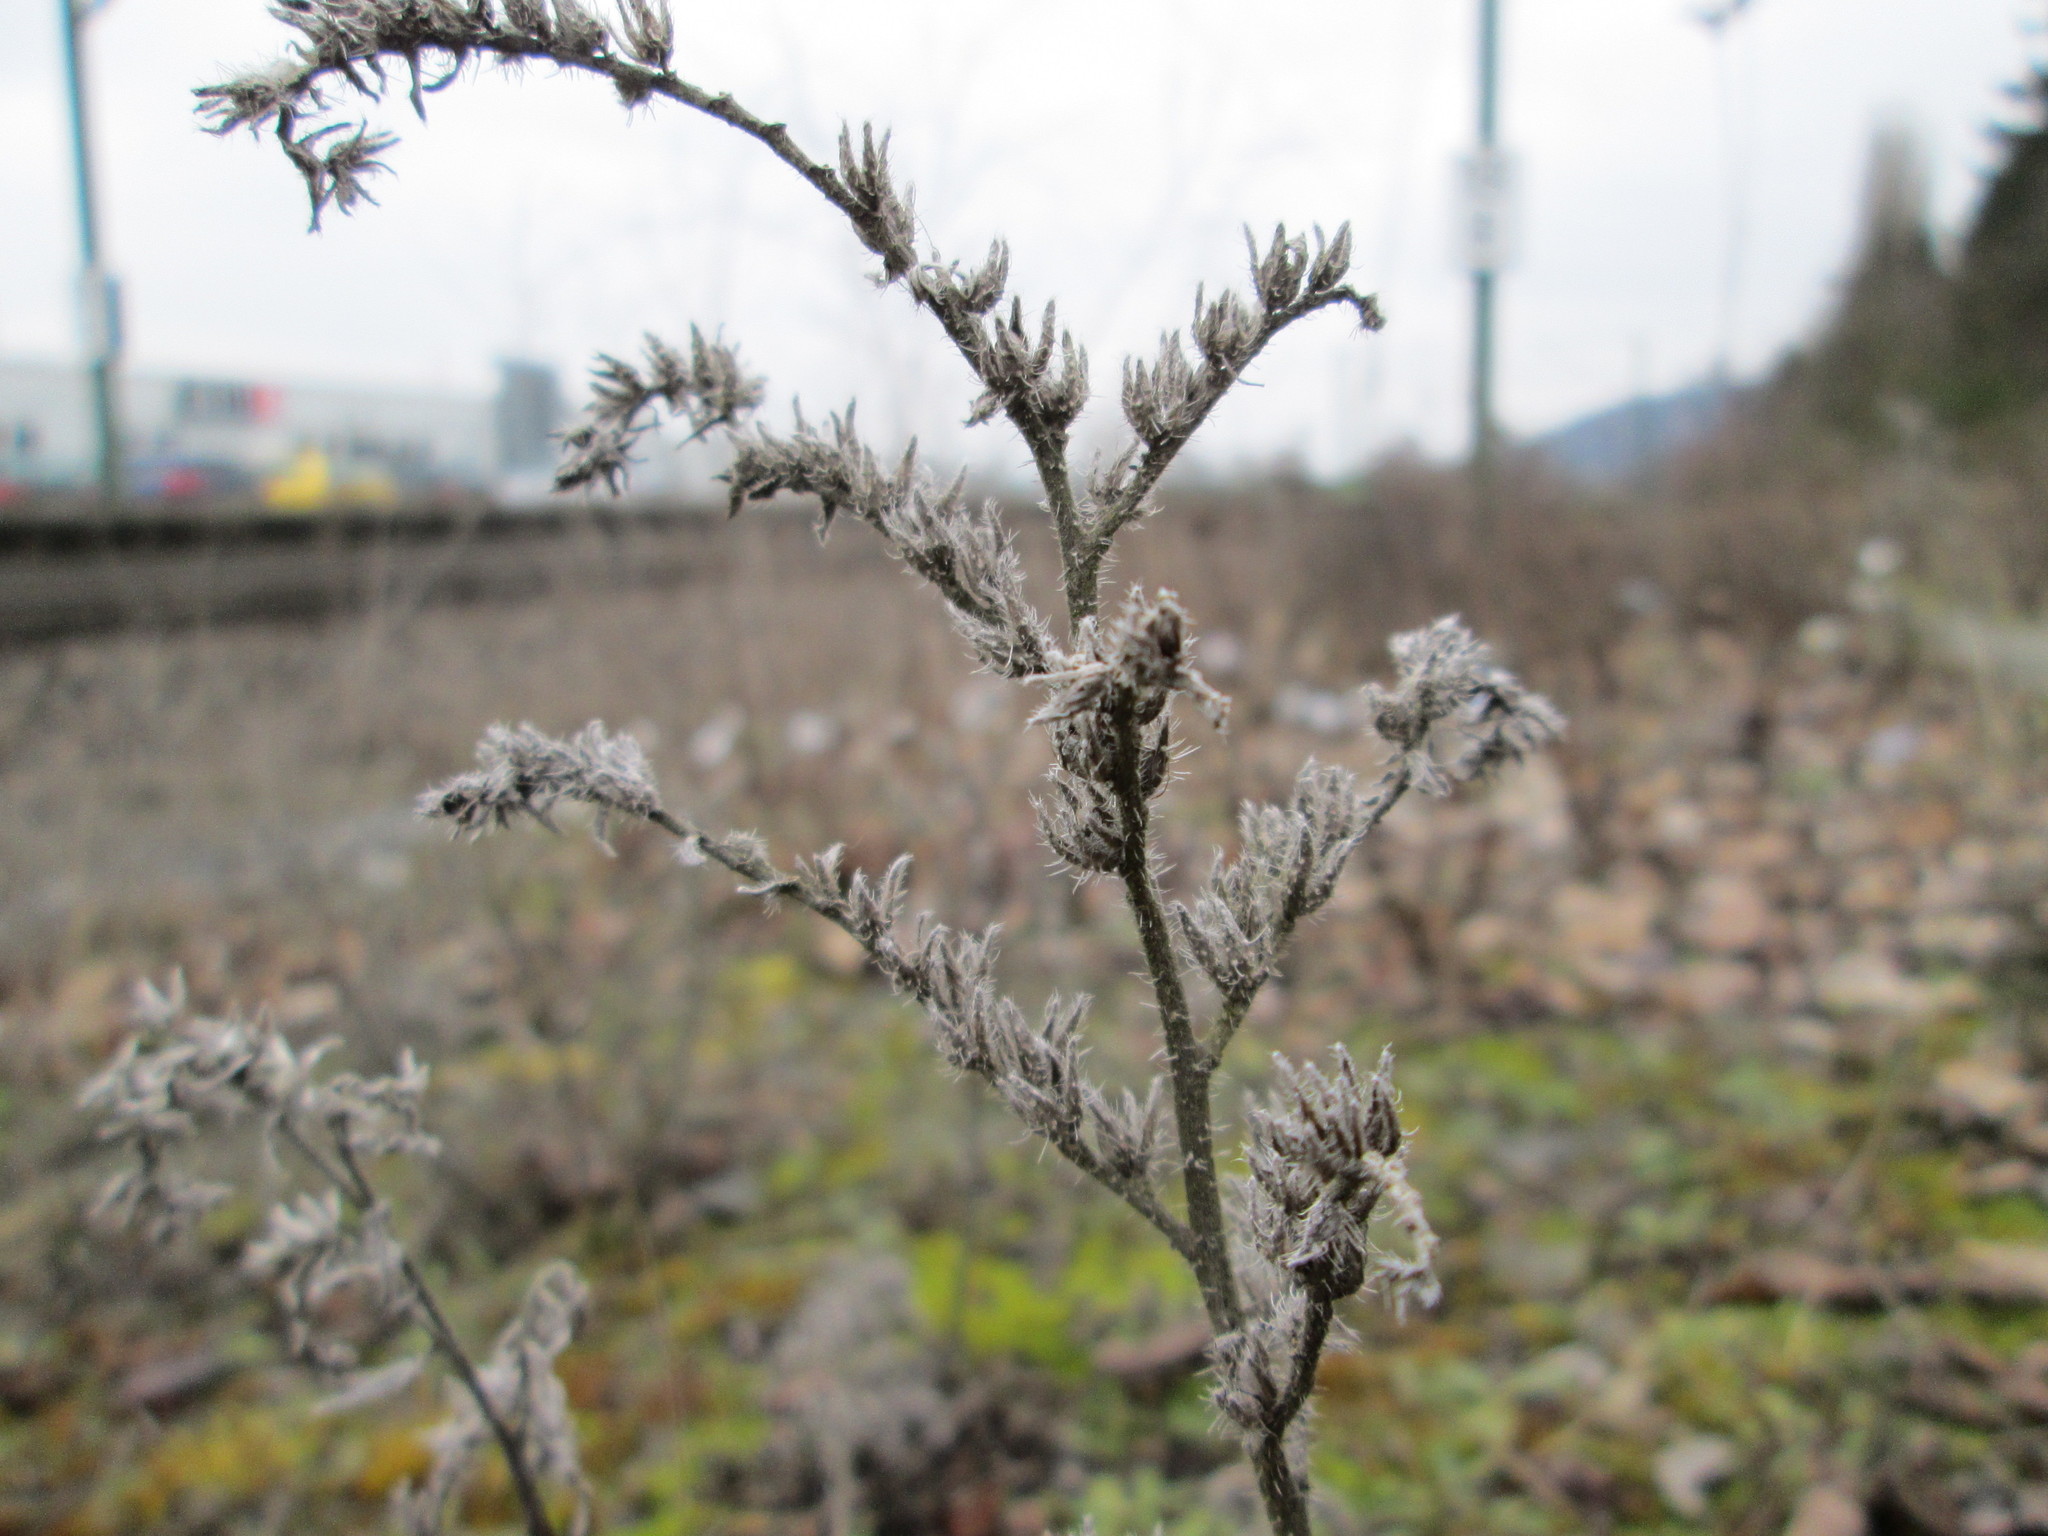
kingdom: Plantae
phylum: Tracheophyta
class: Magnoliopsida
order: Boraginales
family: Boraginaceae
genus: Echium
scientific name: Echium vulgare
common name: Common viper's bugloss
